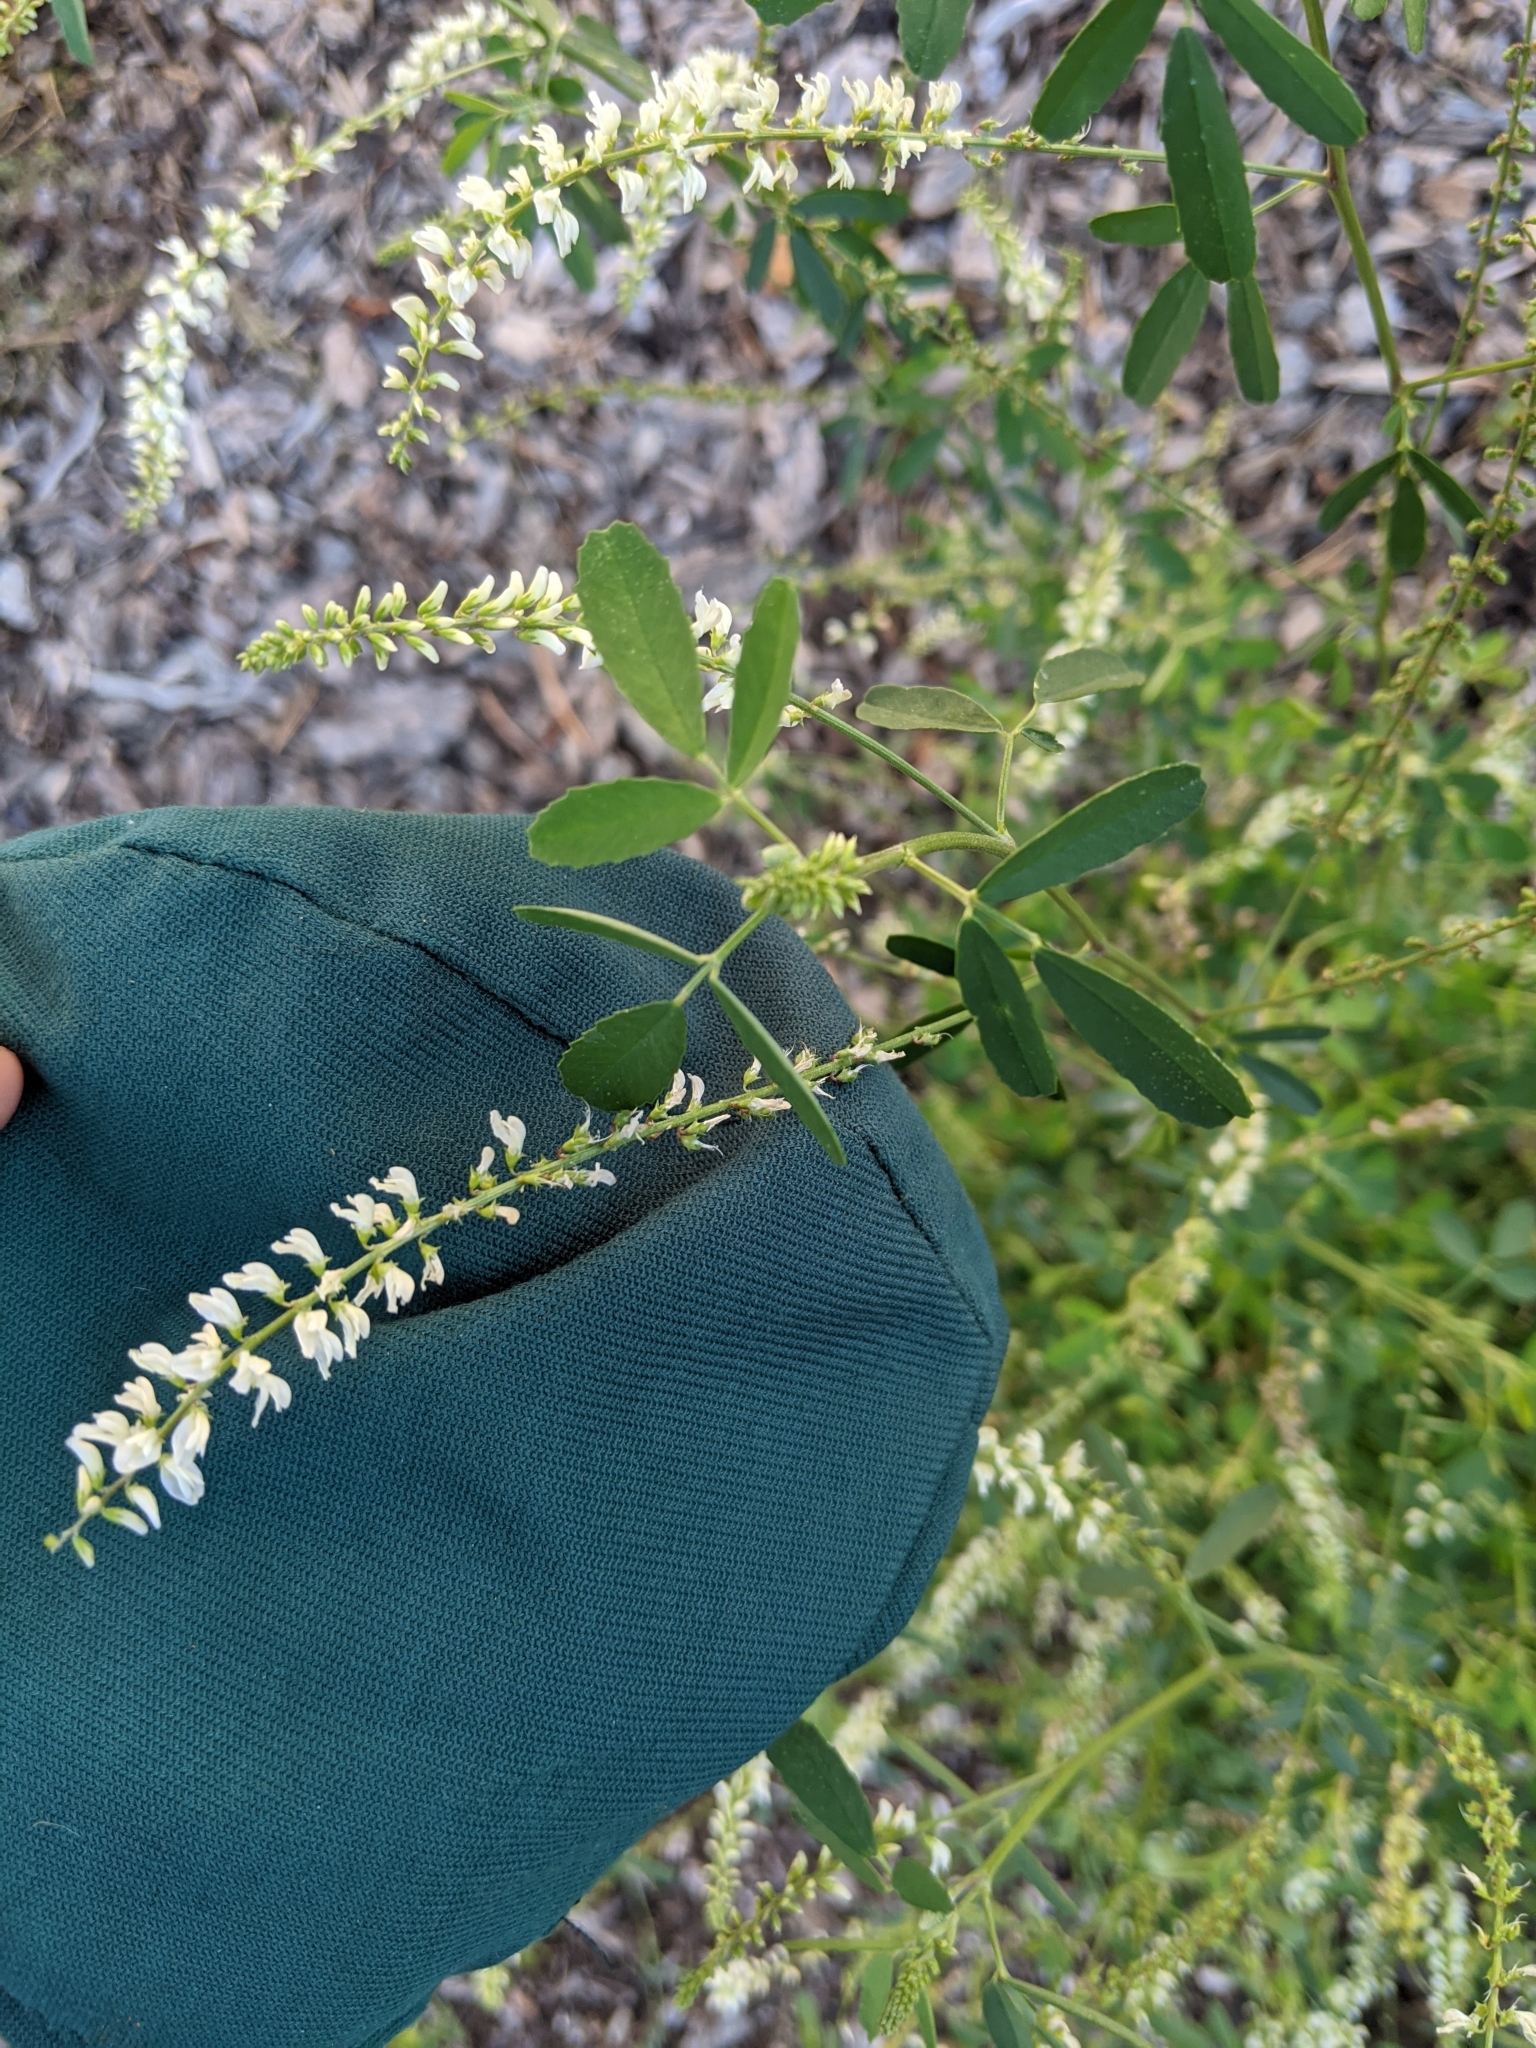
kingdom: Plantae
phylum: Tracheophyta
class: Magnoliopsida
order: Fabales
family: Fabaceae
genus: Melilotus
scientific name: Melilotus albus
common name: White melilot
